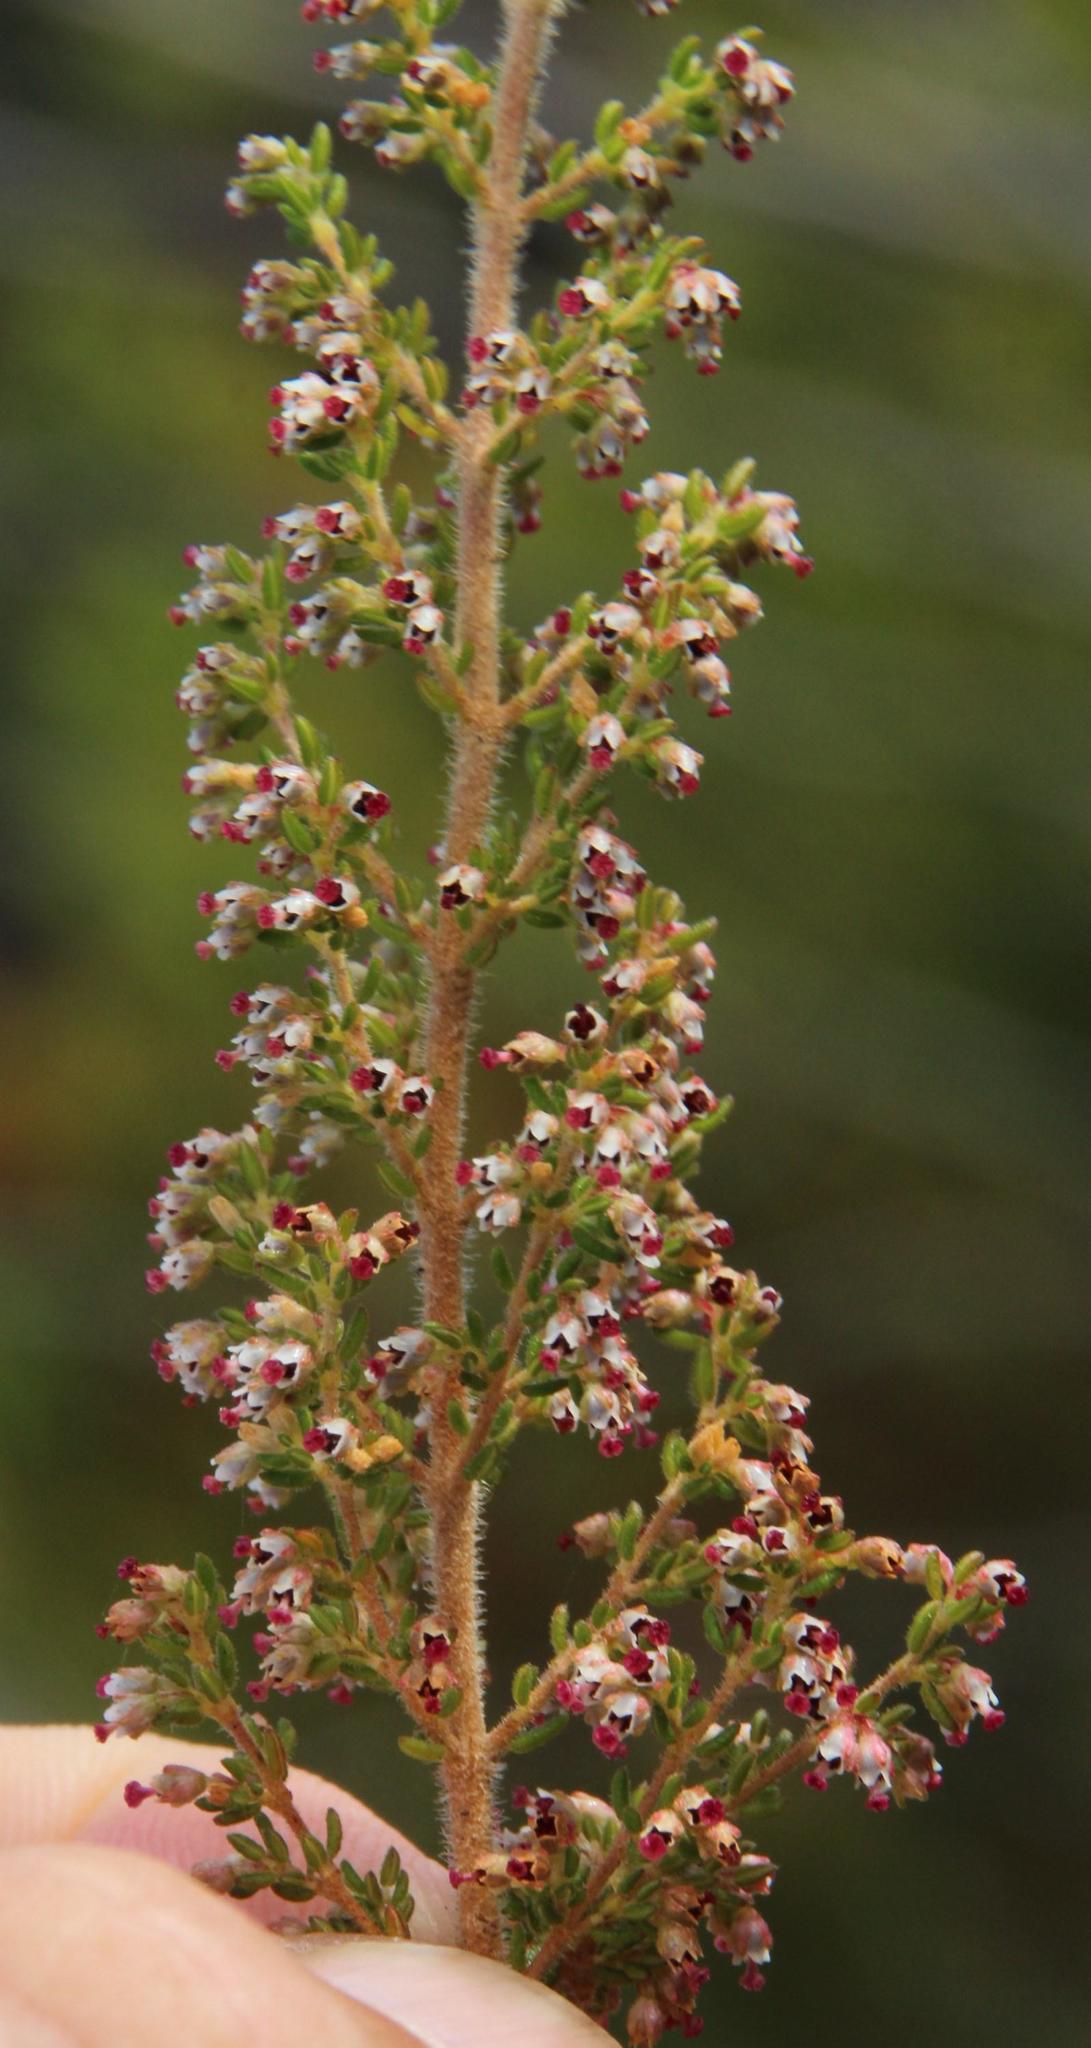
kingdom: Plantae
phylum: Tracheophyta
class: Magnoliopsida
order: Ericales
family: Ericaceae
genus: Erica
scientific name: Erica hispidula
